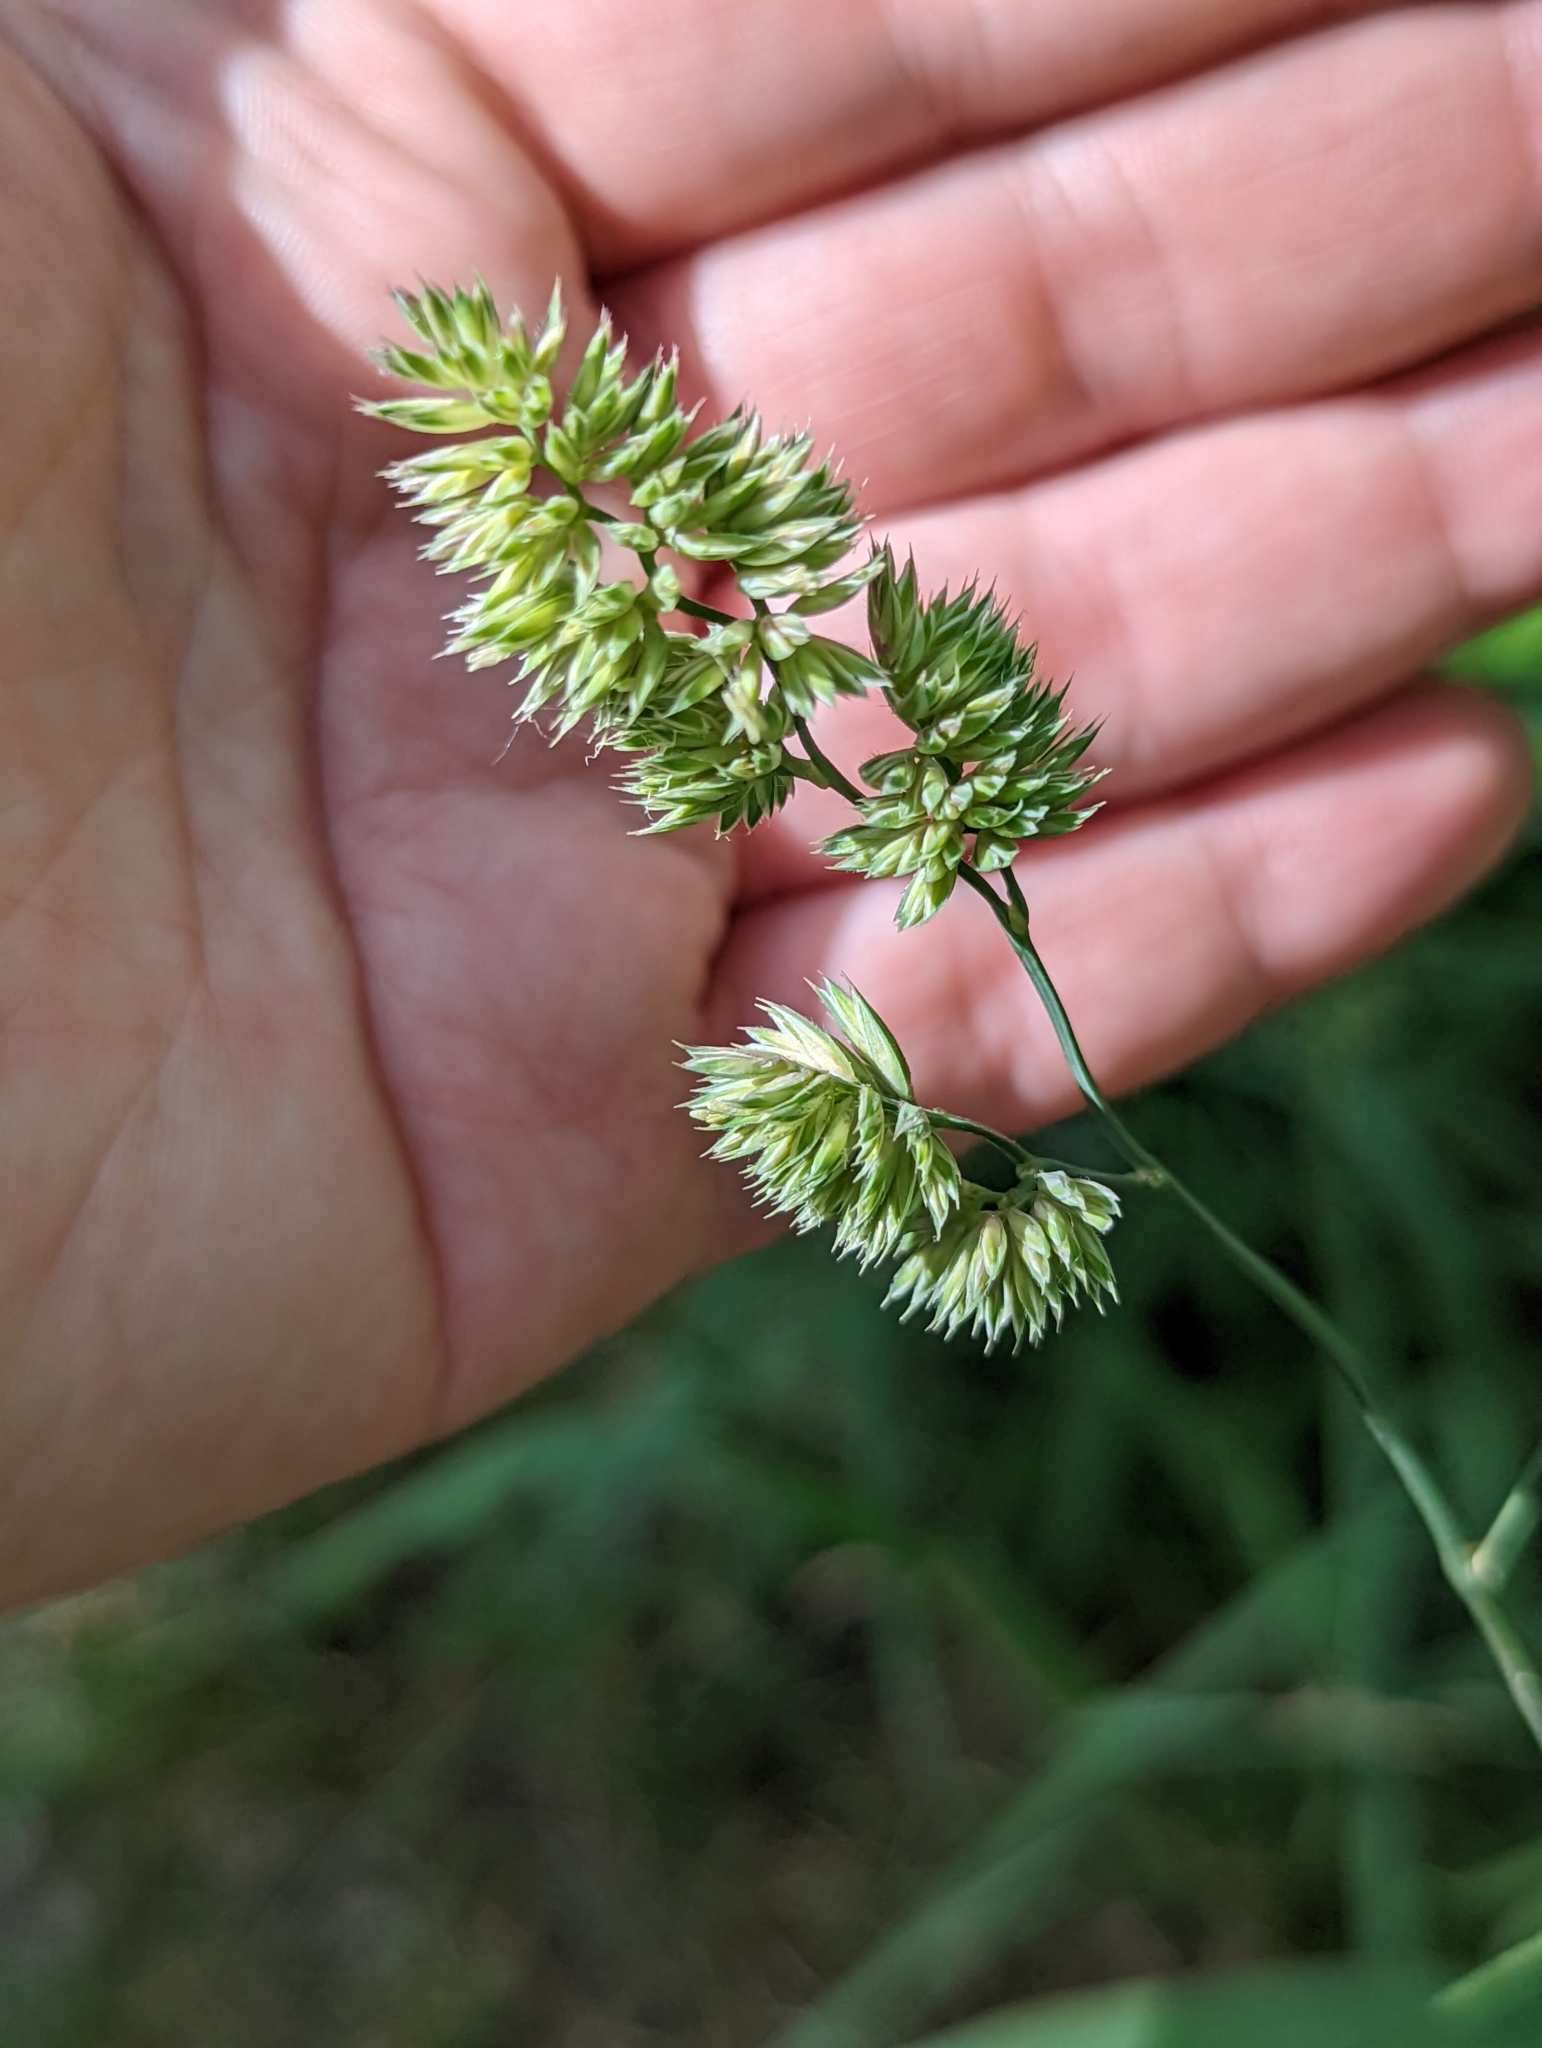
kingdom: Plantae
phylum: Tracheophyta
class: Liliopsida
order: Poales
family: Poaceae
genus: Dactylis
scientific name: Dactylis glomerata
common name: Orchardgrass
